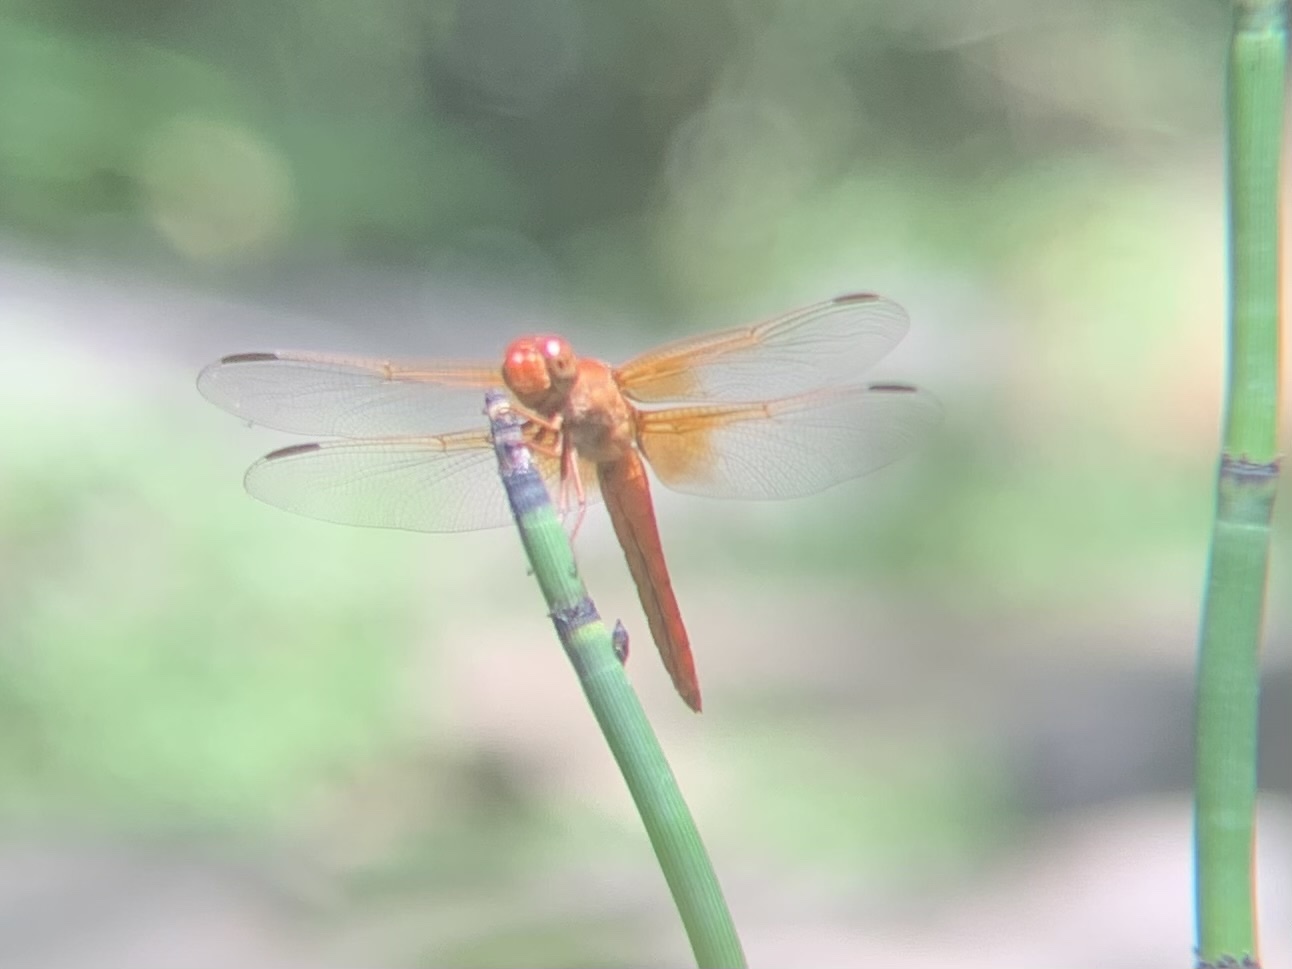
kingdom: Animalia
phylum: Arthropoda
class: Insecta
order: Odonata
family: Libellulidae
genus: Libellula
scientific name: Libellula croceipennis
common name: Neon skimmer
